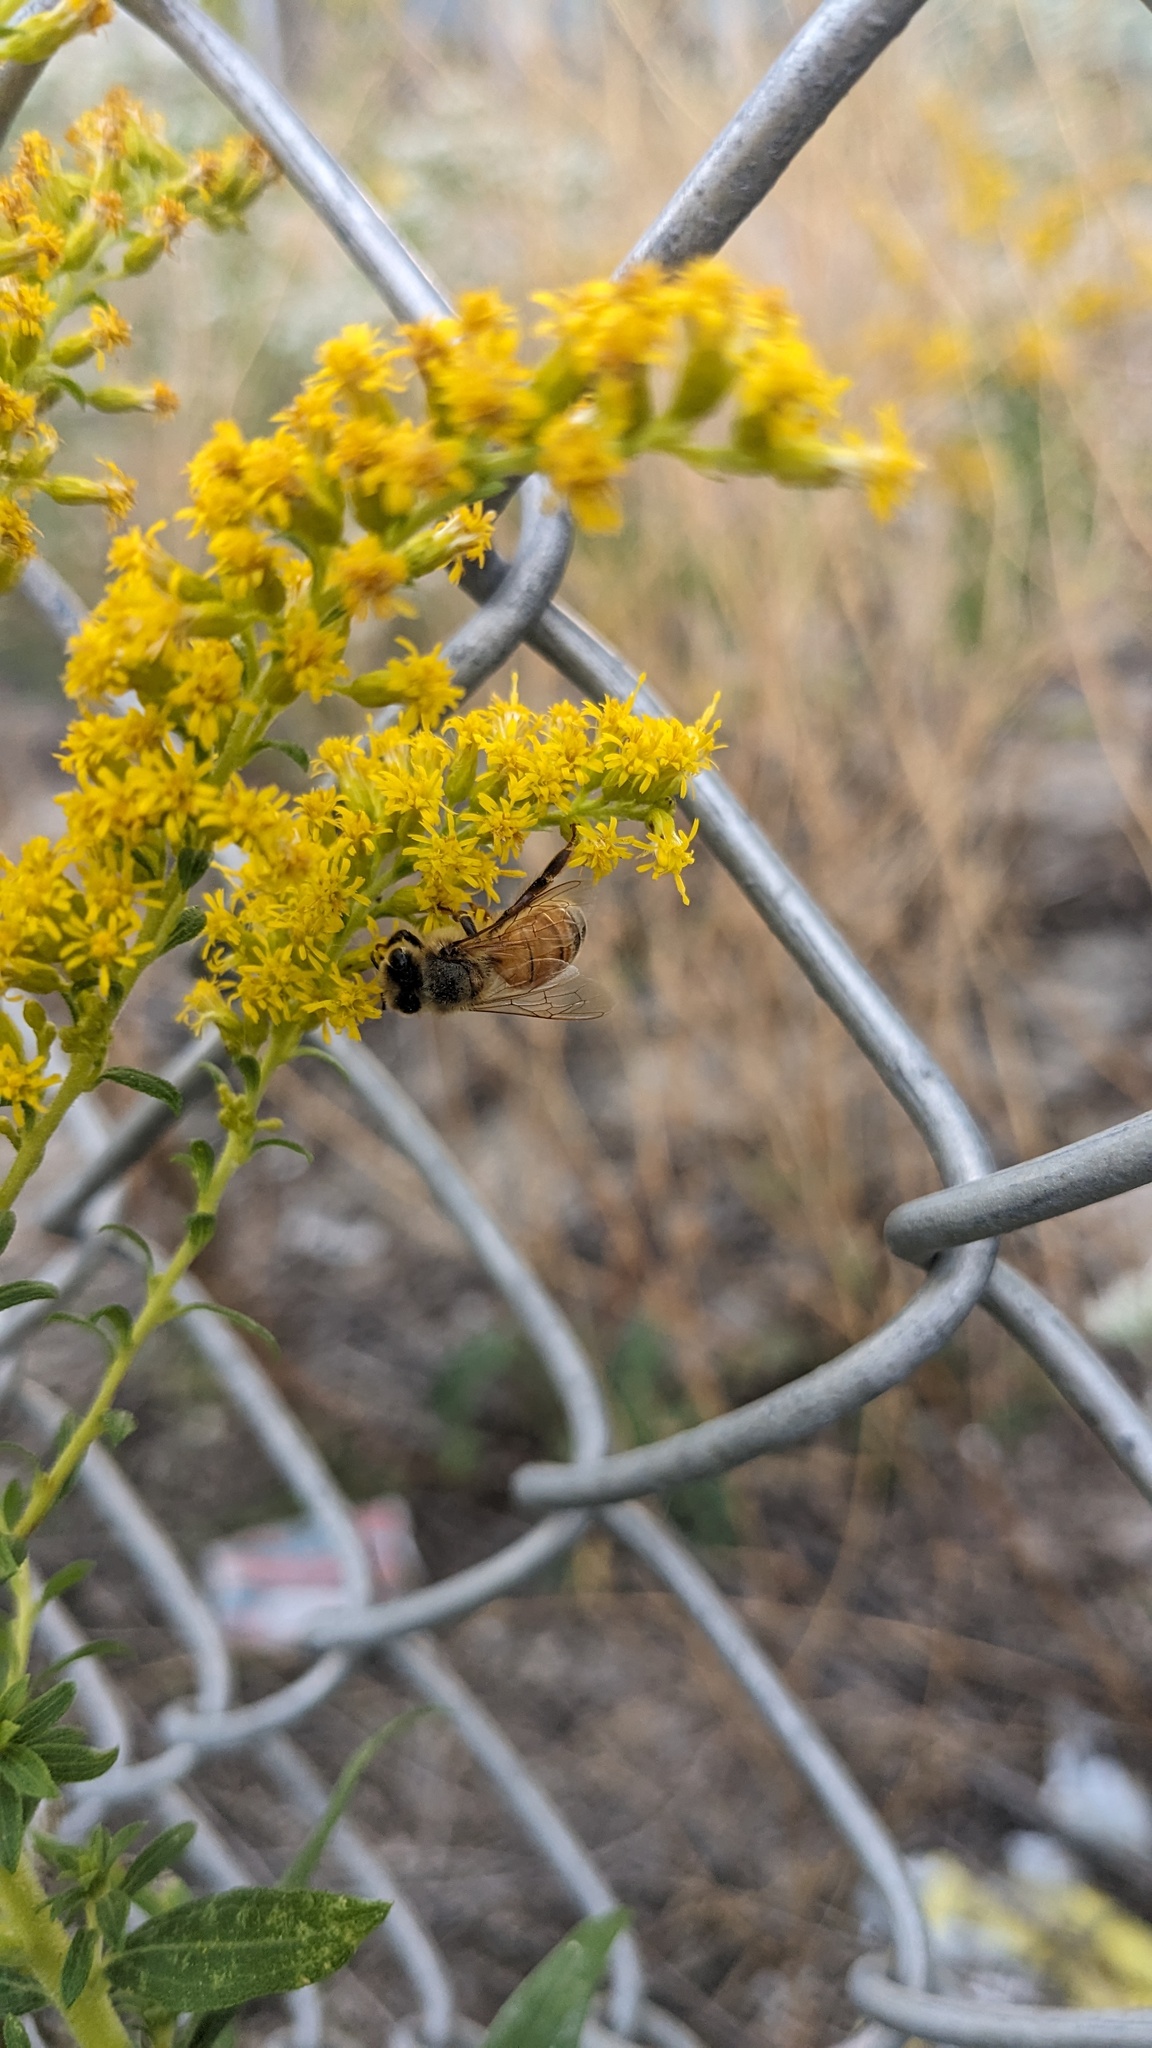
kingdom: Animalia
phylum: Arthropoda
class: Insecta
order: Hymenoptera
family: Apidae
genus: Apis
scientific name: Apis mellifera
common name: Honey bee
